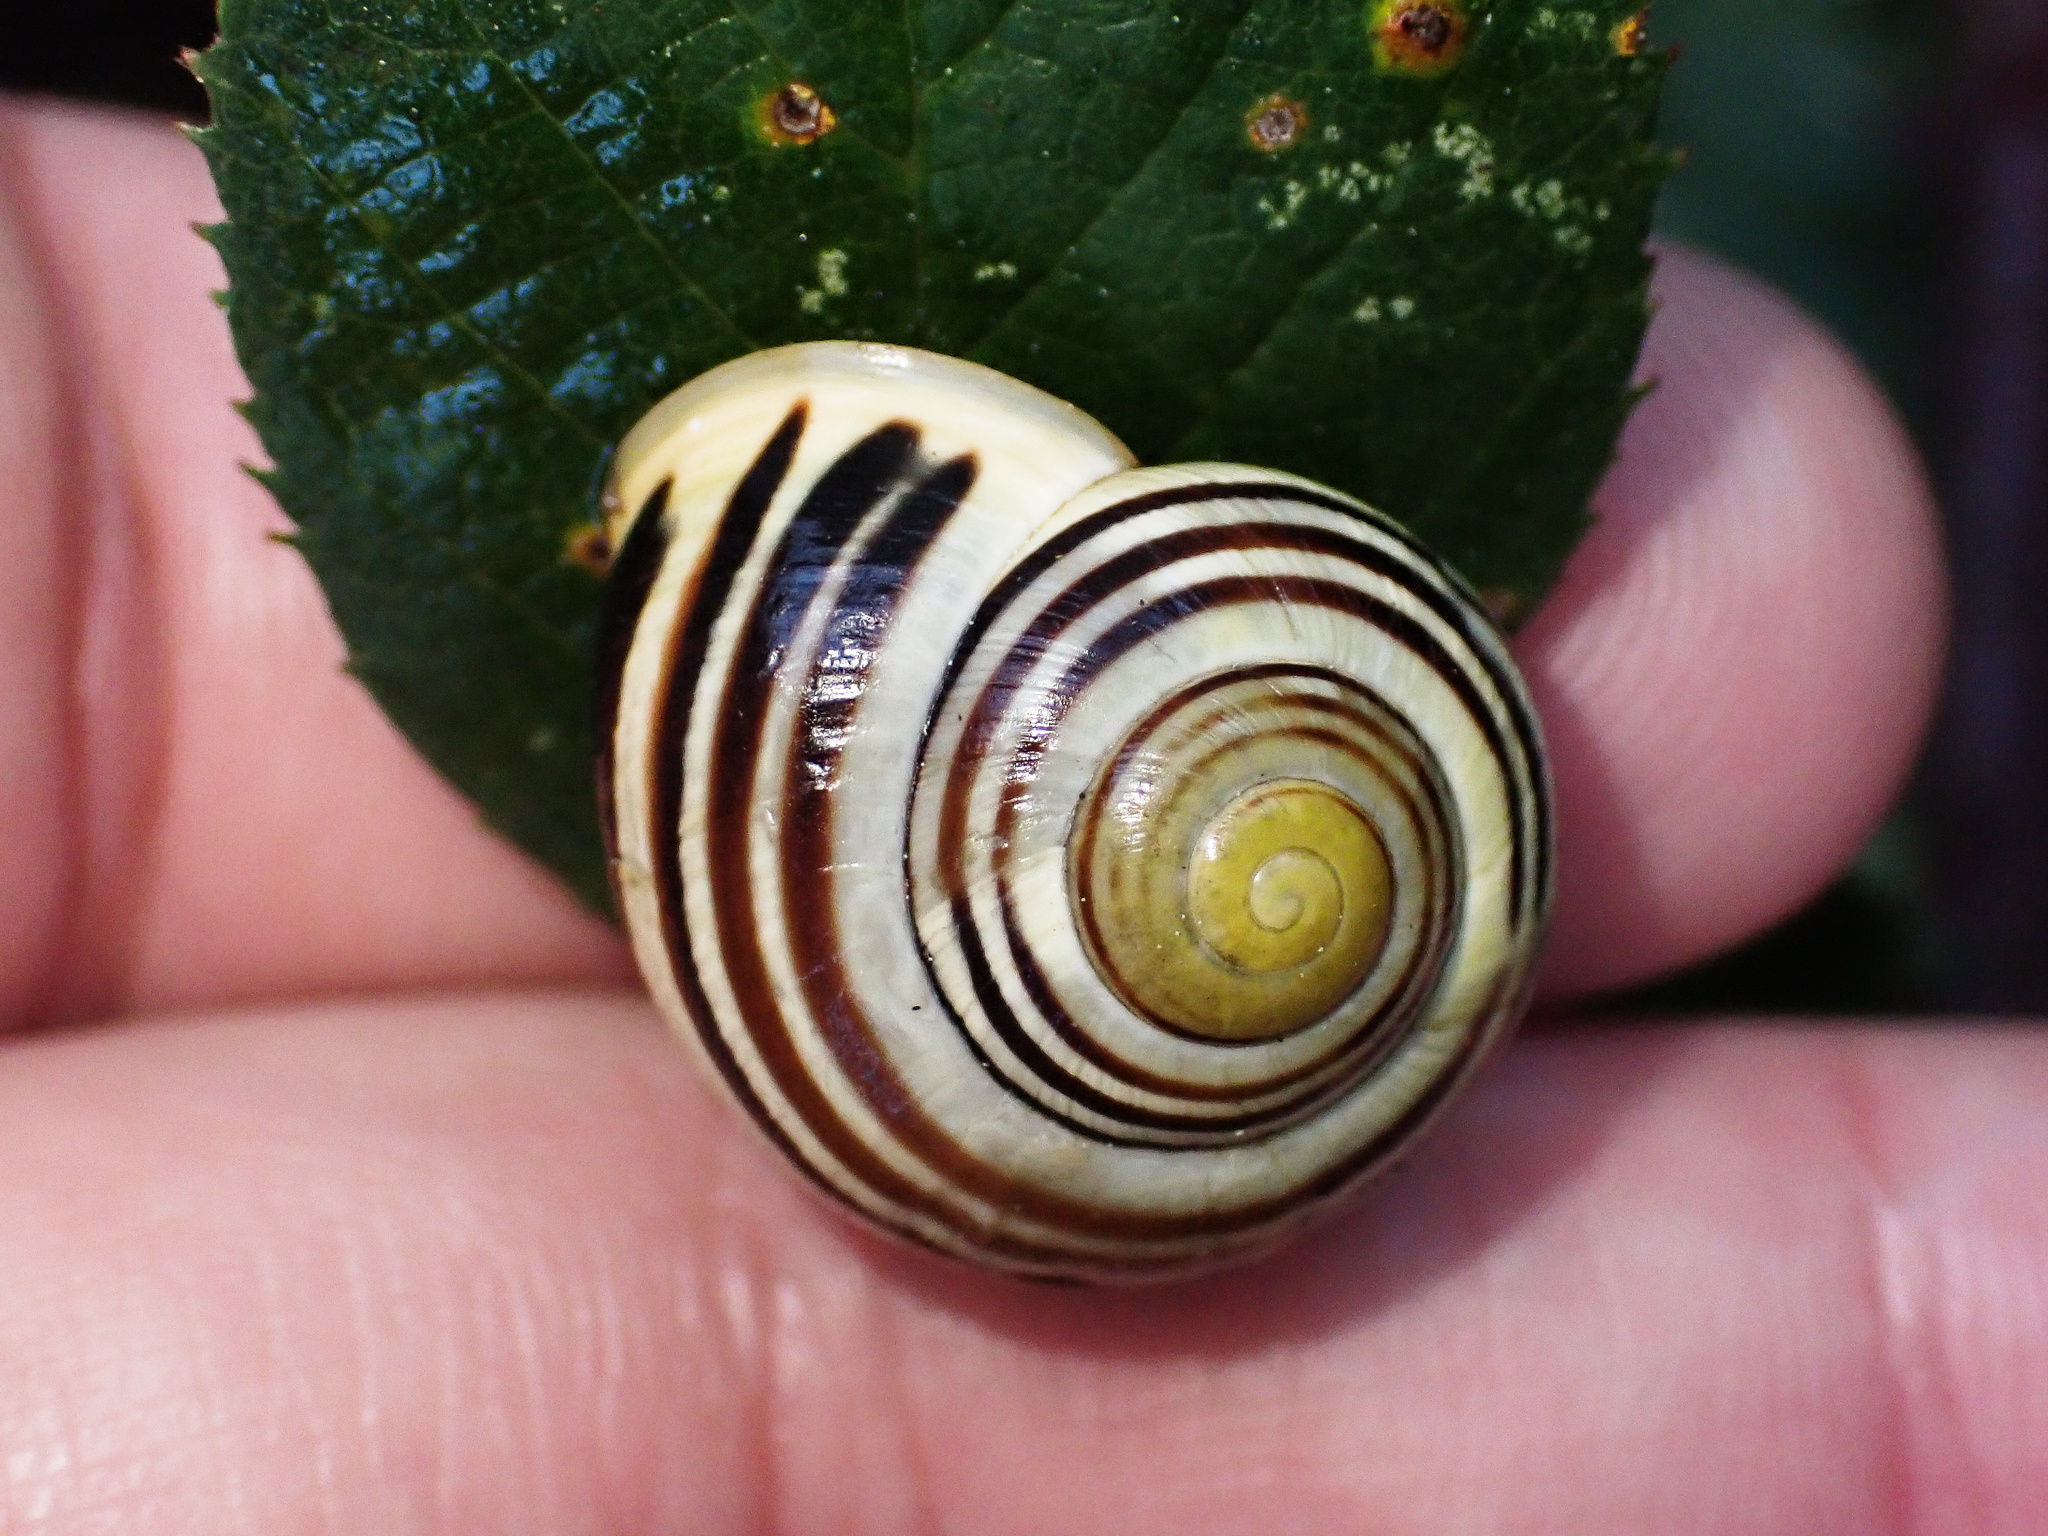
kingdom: Animalia
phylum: Mollusca
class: Gastropoda
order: Stylommatophora
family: Helicidae
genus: Cepaea
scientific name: Cepaea hortensis
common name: White-lip gardensnail
